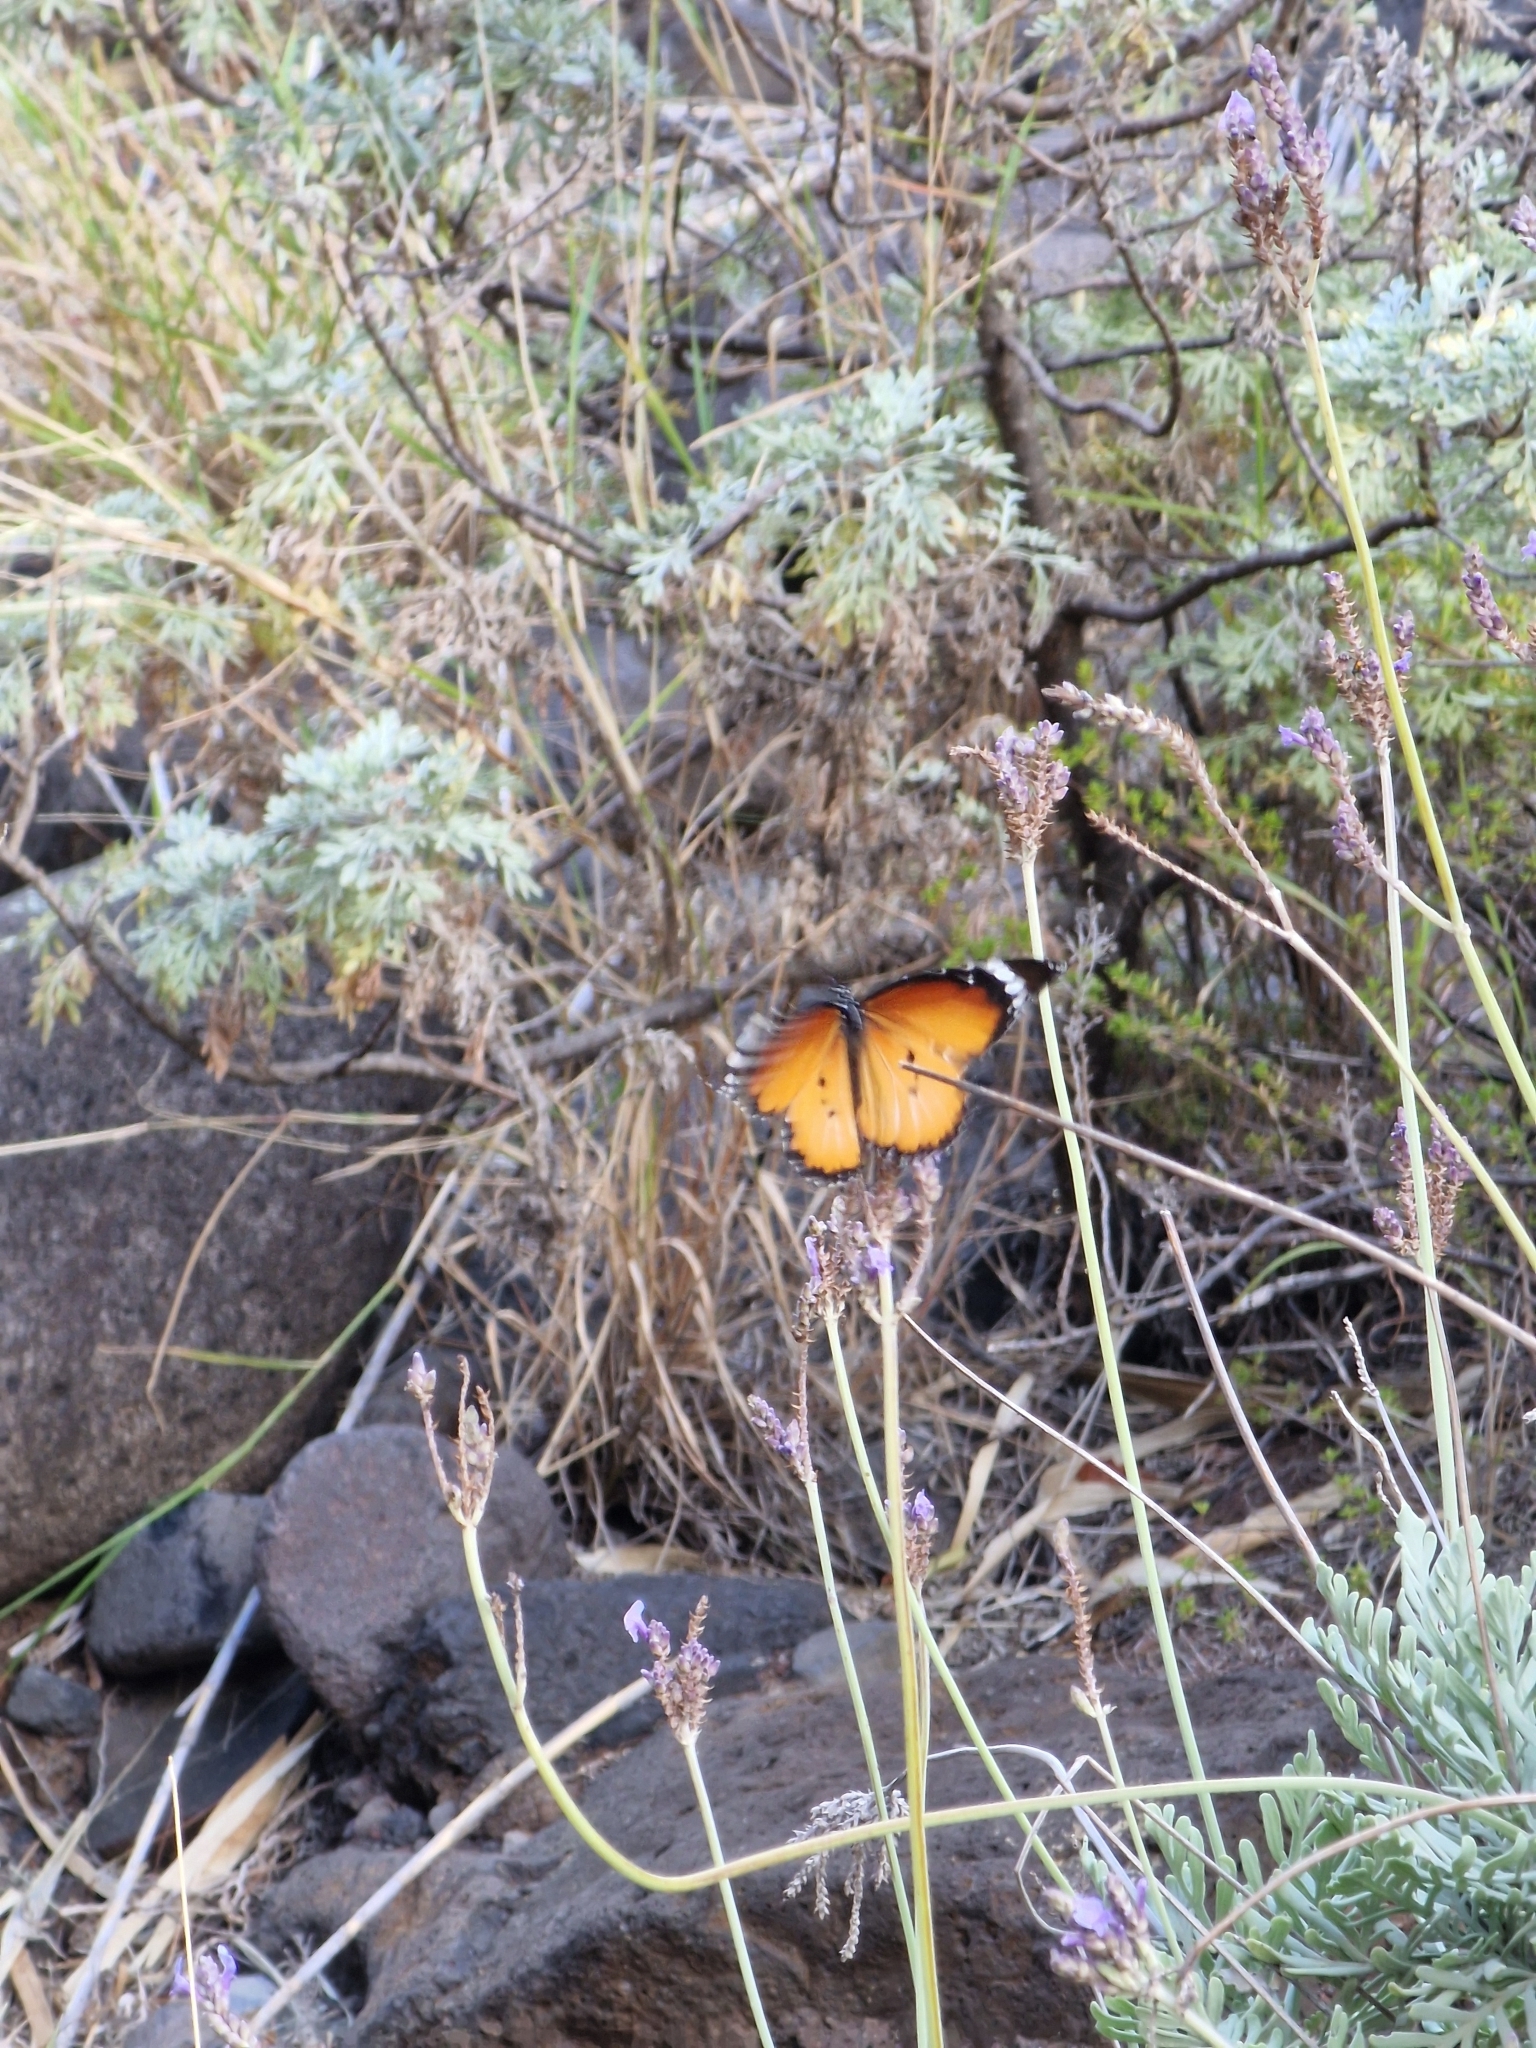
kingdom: Animalia
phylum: Arthropoda
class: Insecta
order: Lepidoptera
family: Nymphalidae
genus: Danaus
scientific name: Danaus chrysippus
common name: Plain tiger
